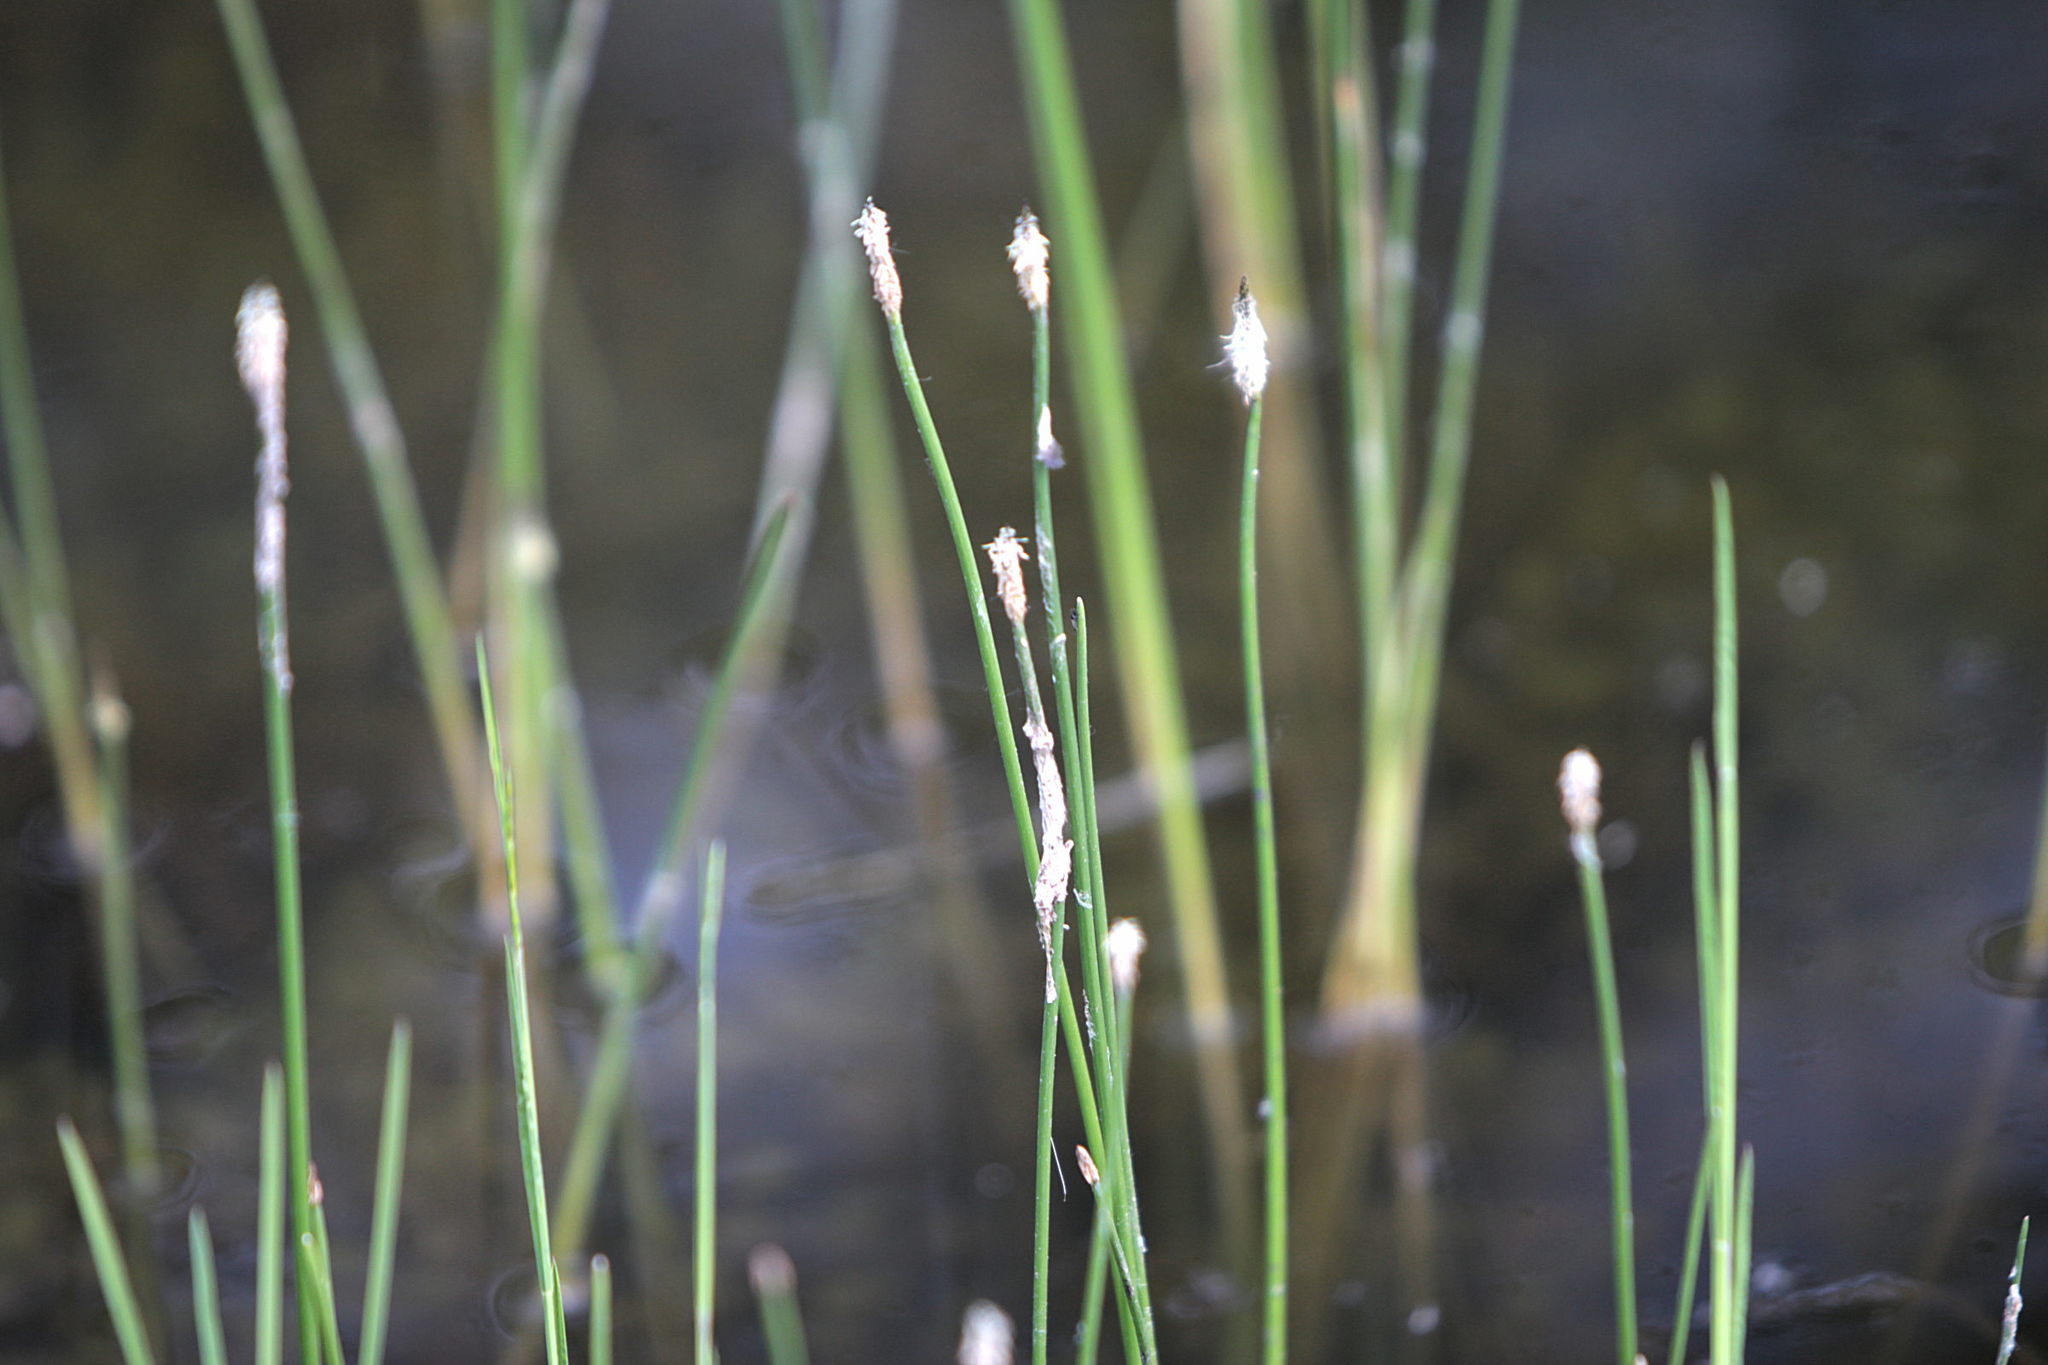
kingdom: Plantae
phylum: Tracheophyta
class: Liliopsida
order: Poales
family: Cyperaceae
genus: Eleocharis
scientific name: Eleocharis palustris
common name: Common spike-rush
